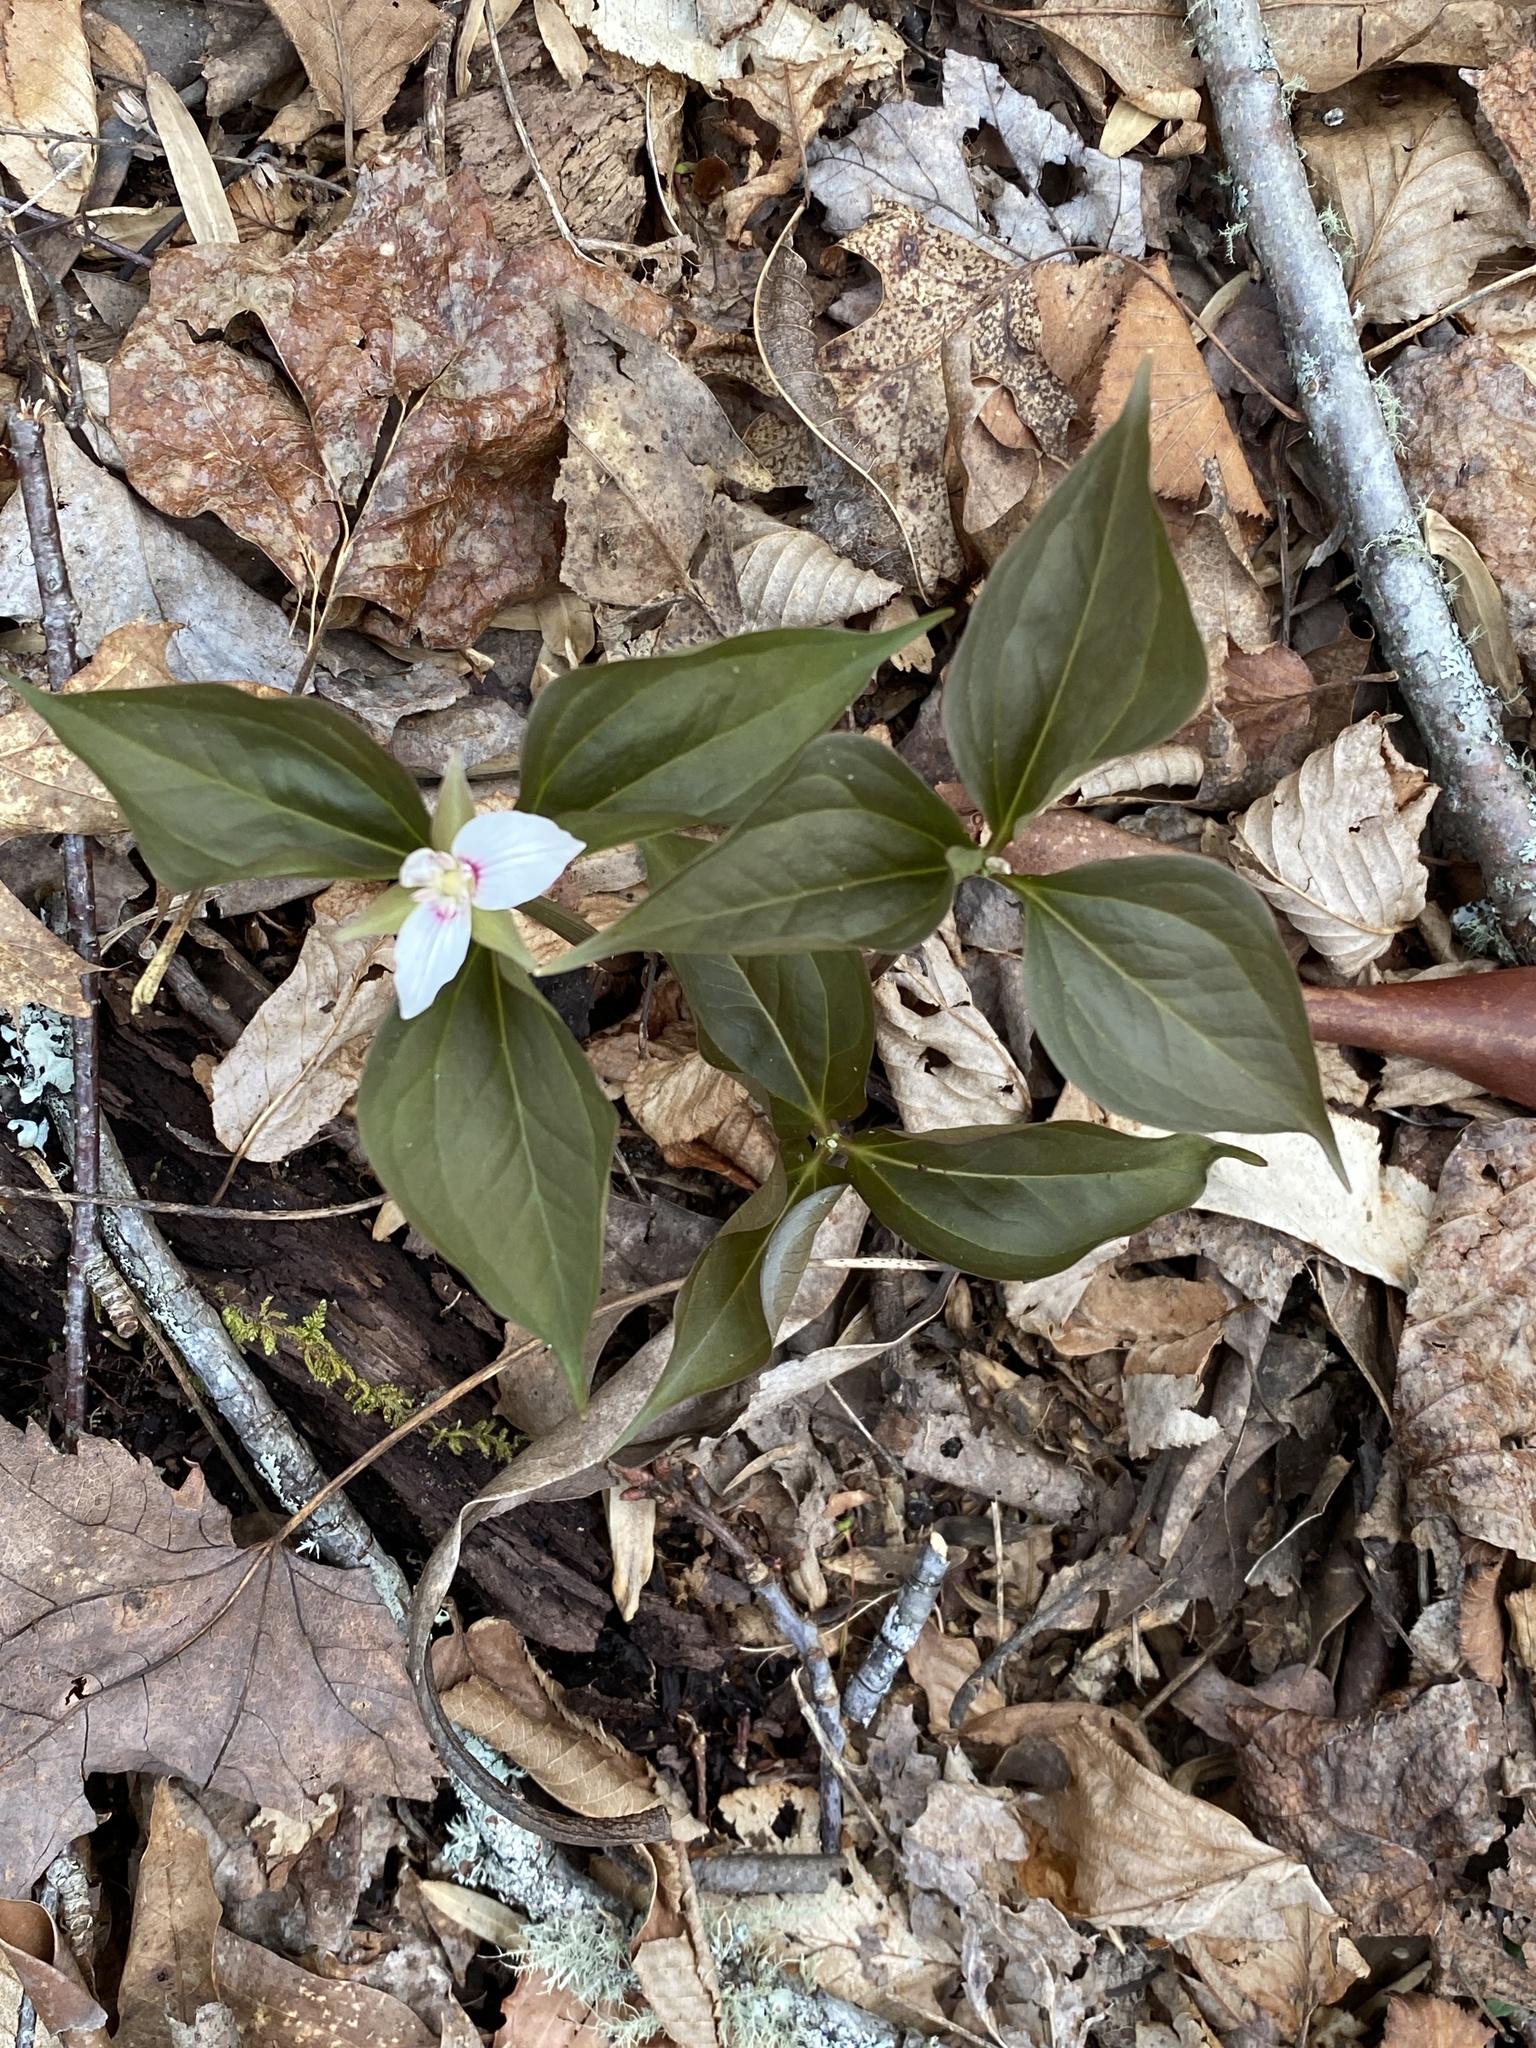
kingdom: Plantae
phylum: Tracheophyta
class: Liliopsida
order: Liliales
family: Melanthiaceae
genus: Trillium
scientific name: Trillium undulatum
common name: Paint trillium
